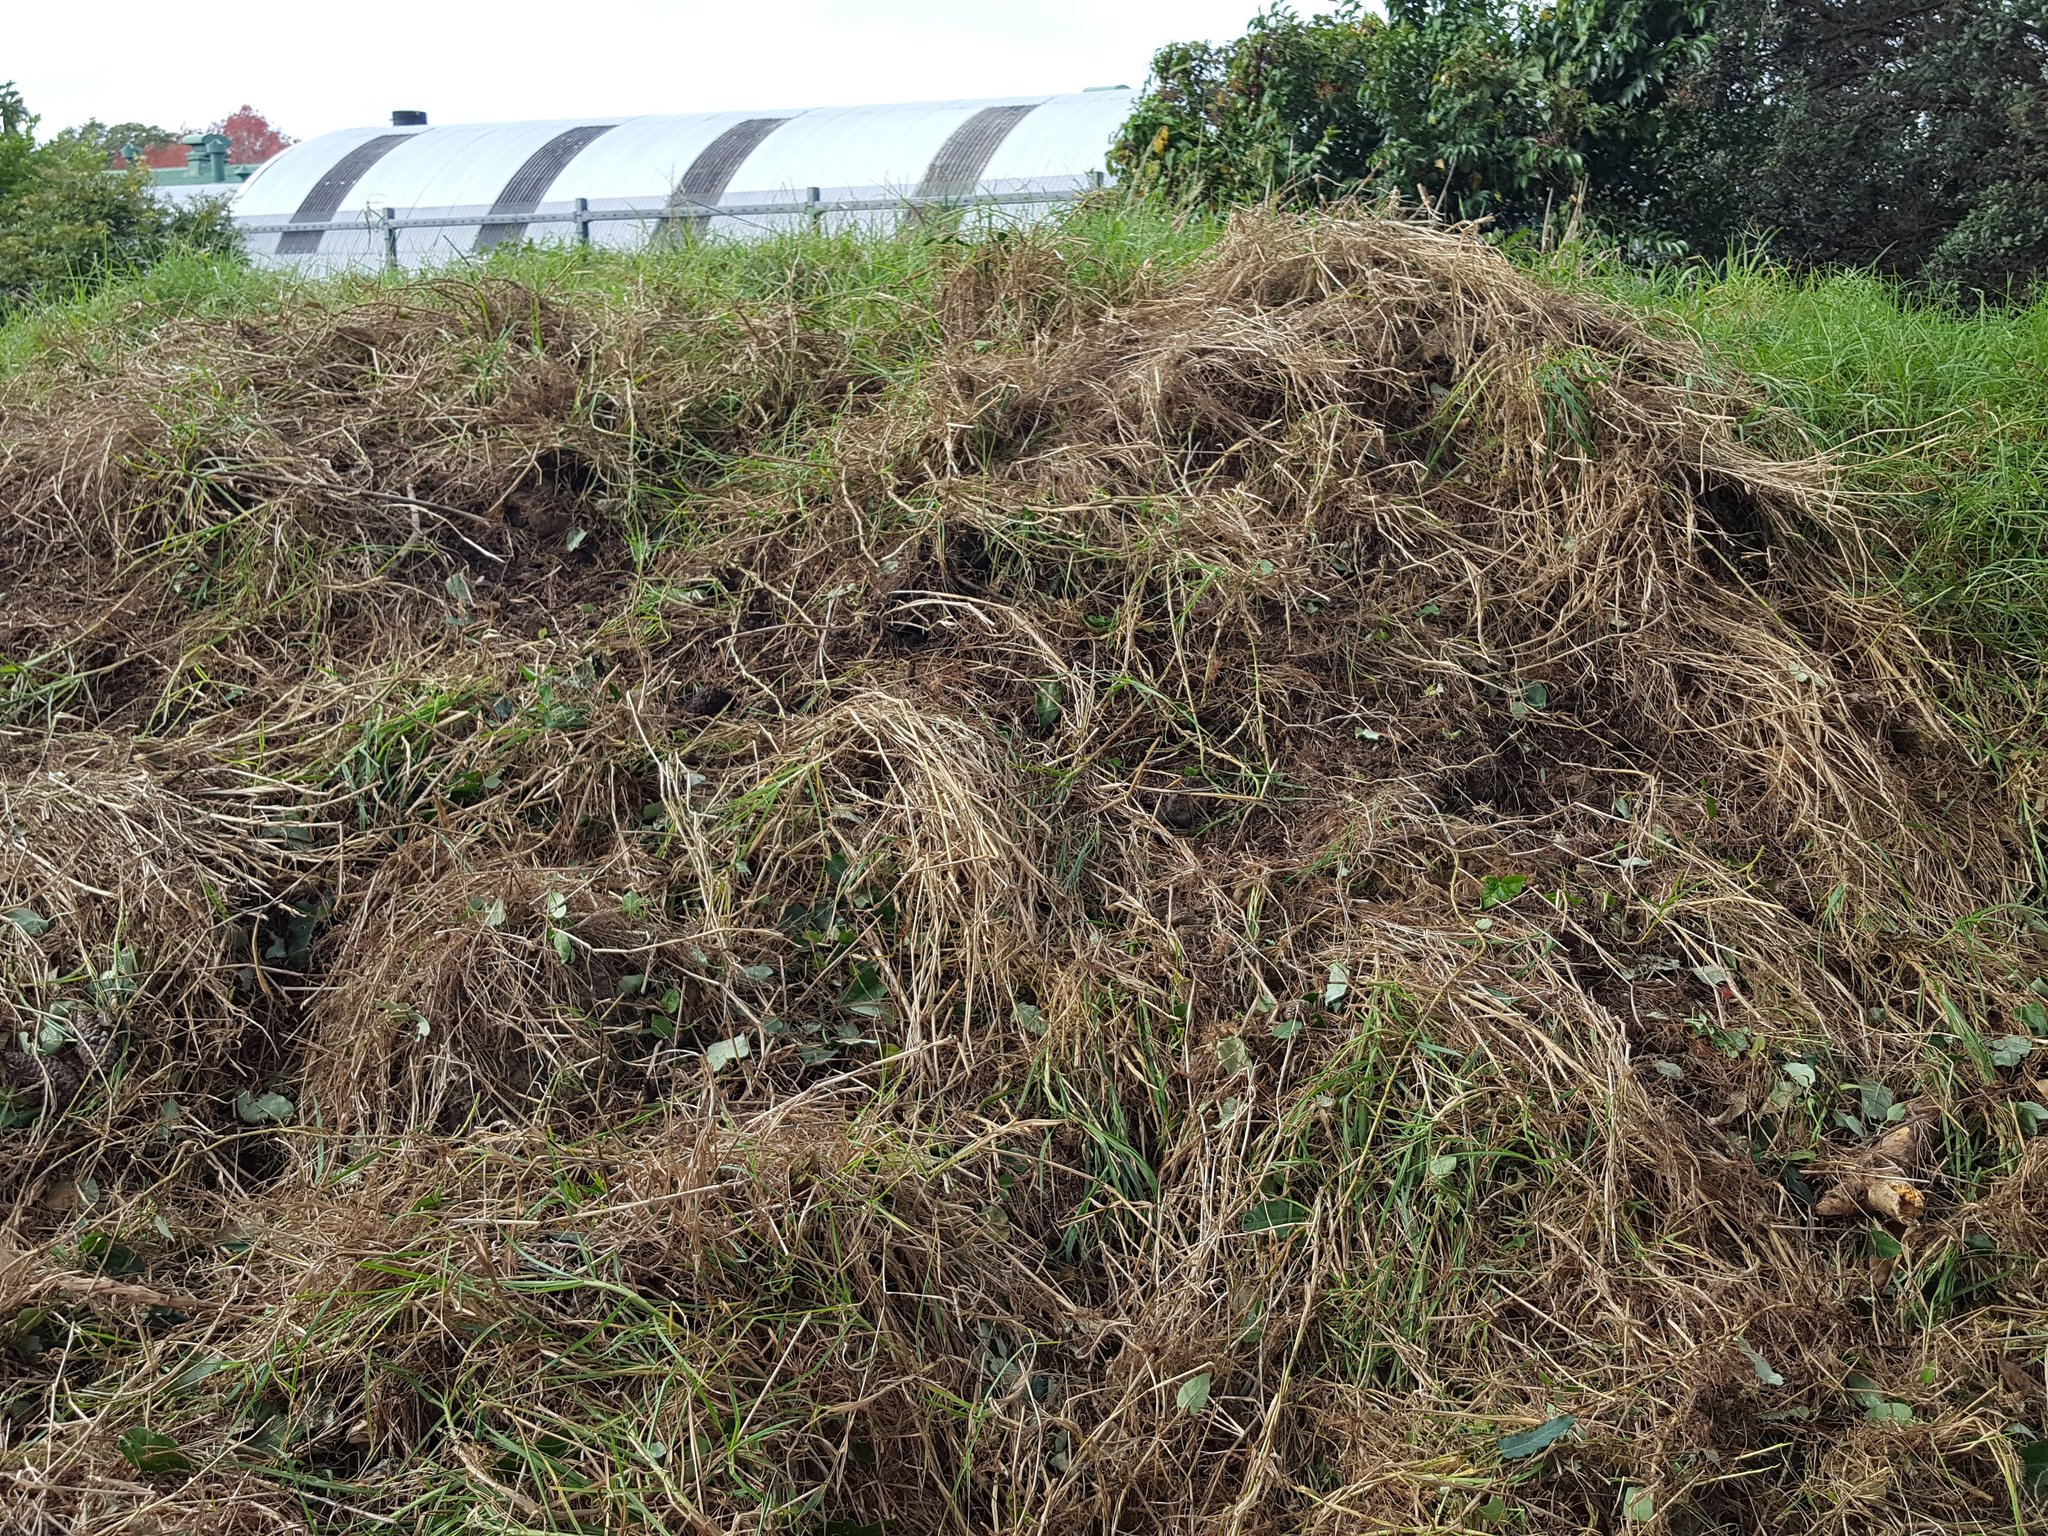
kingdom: Plantae
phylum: Tracheophyta
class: Magnoliopsida
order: Gentianales
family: Apocynaceae
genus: Araujia
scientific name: Araujia sericifera
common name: White bladderflower
